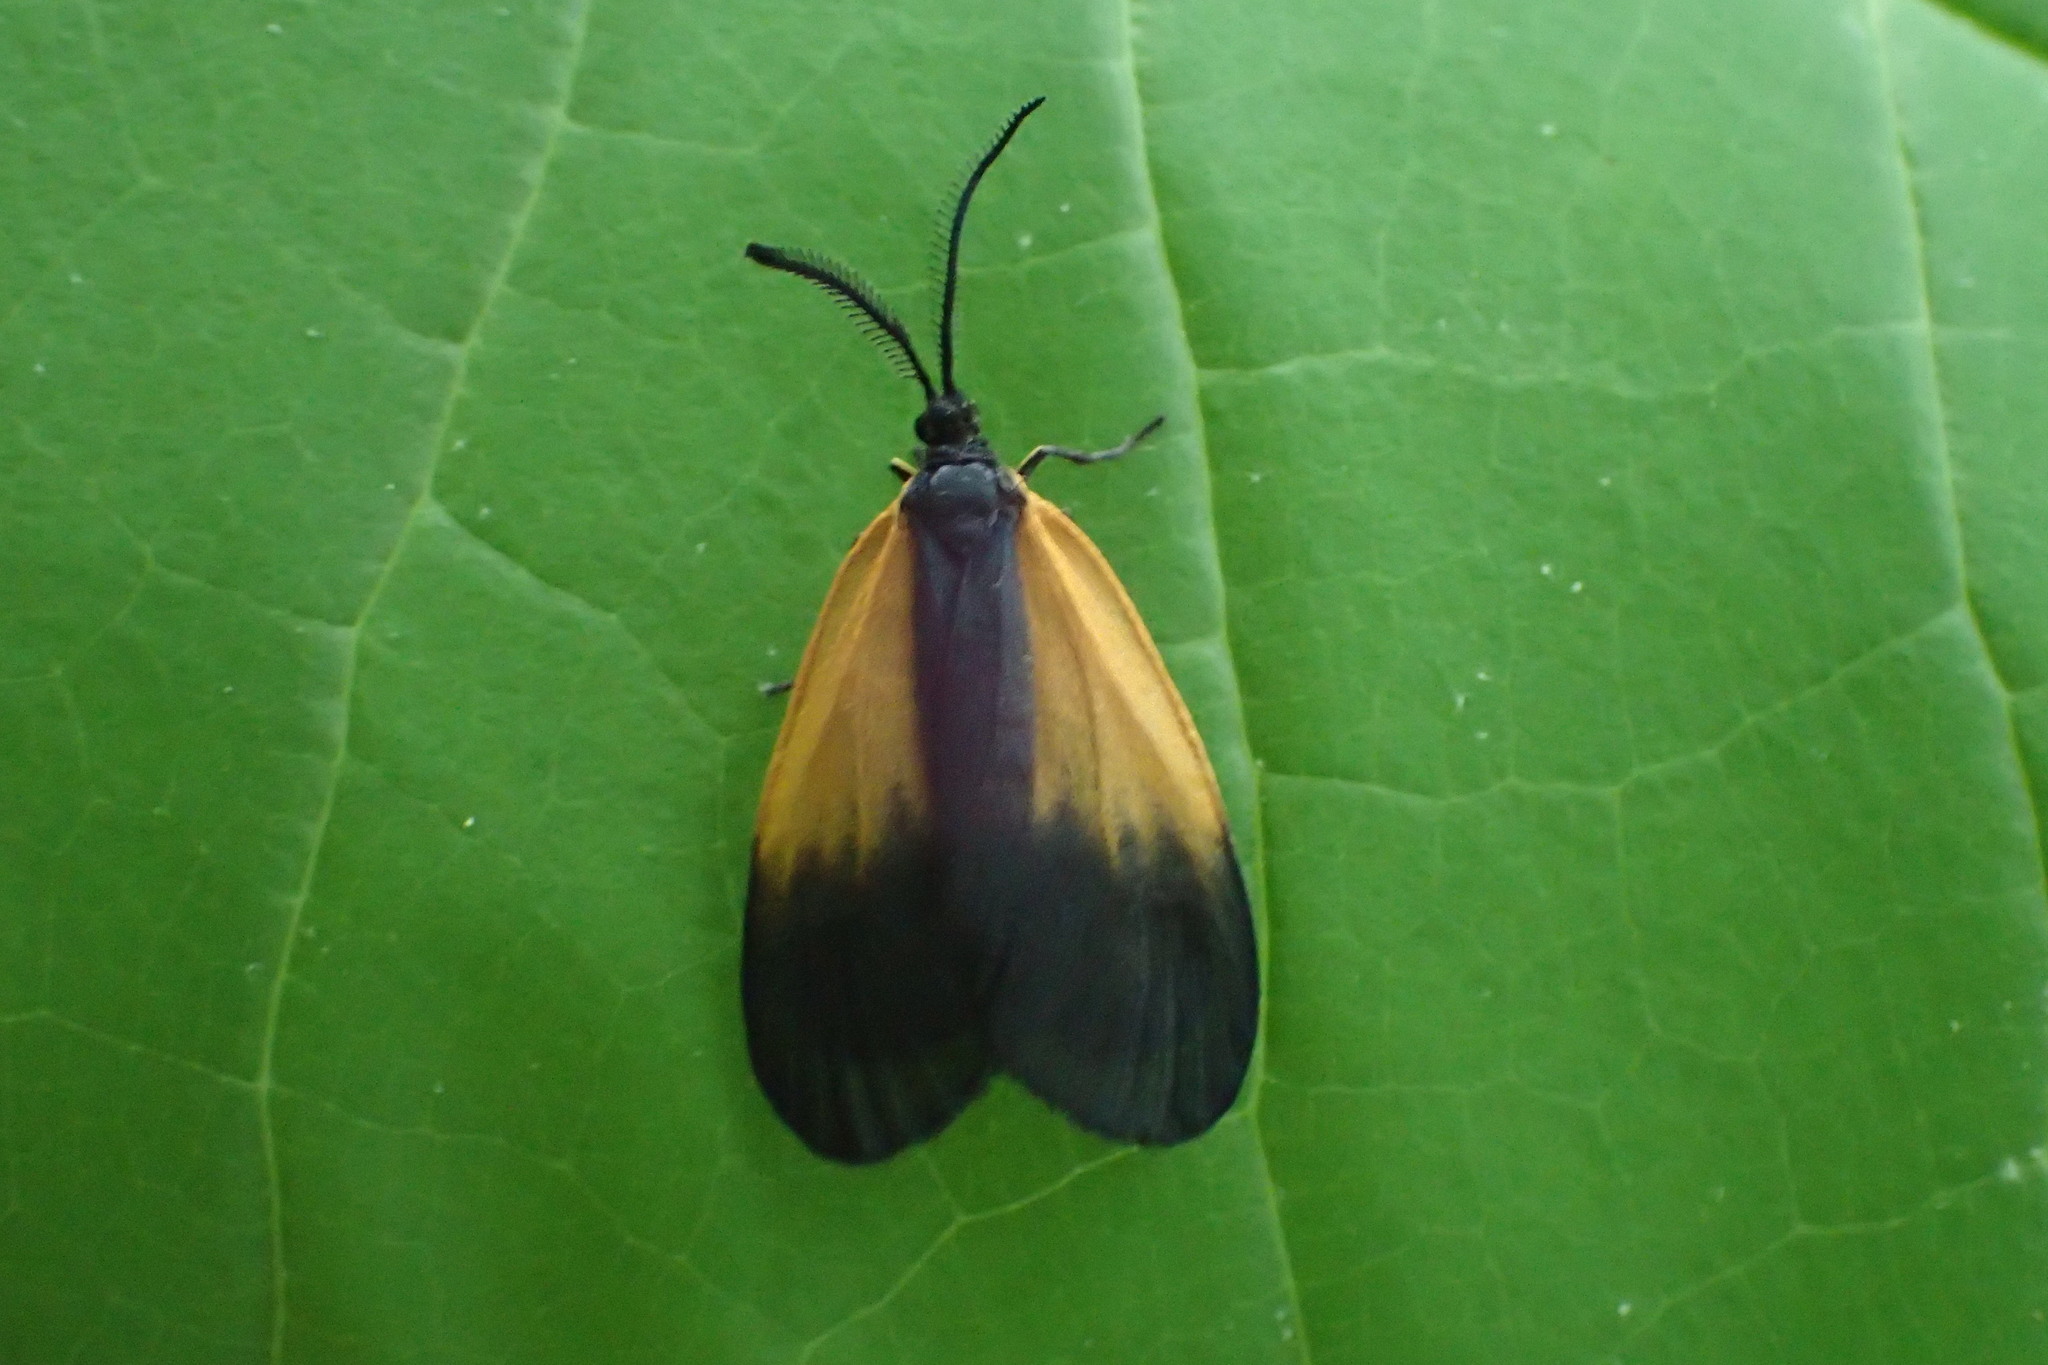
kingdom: Animalia
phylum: Arthropoda
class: Insecta
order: Lepidoptera
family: Zygaenidae
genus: Malthaca
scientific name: Malthaca dimidiata
